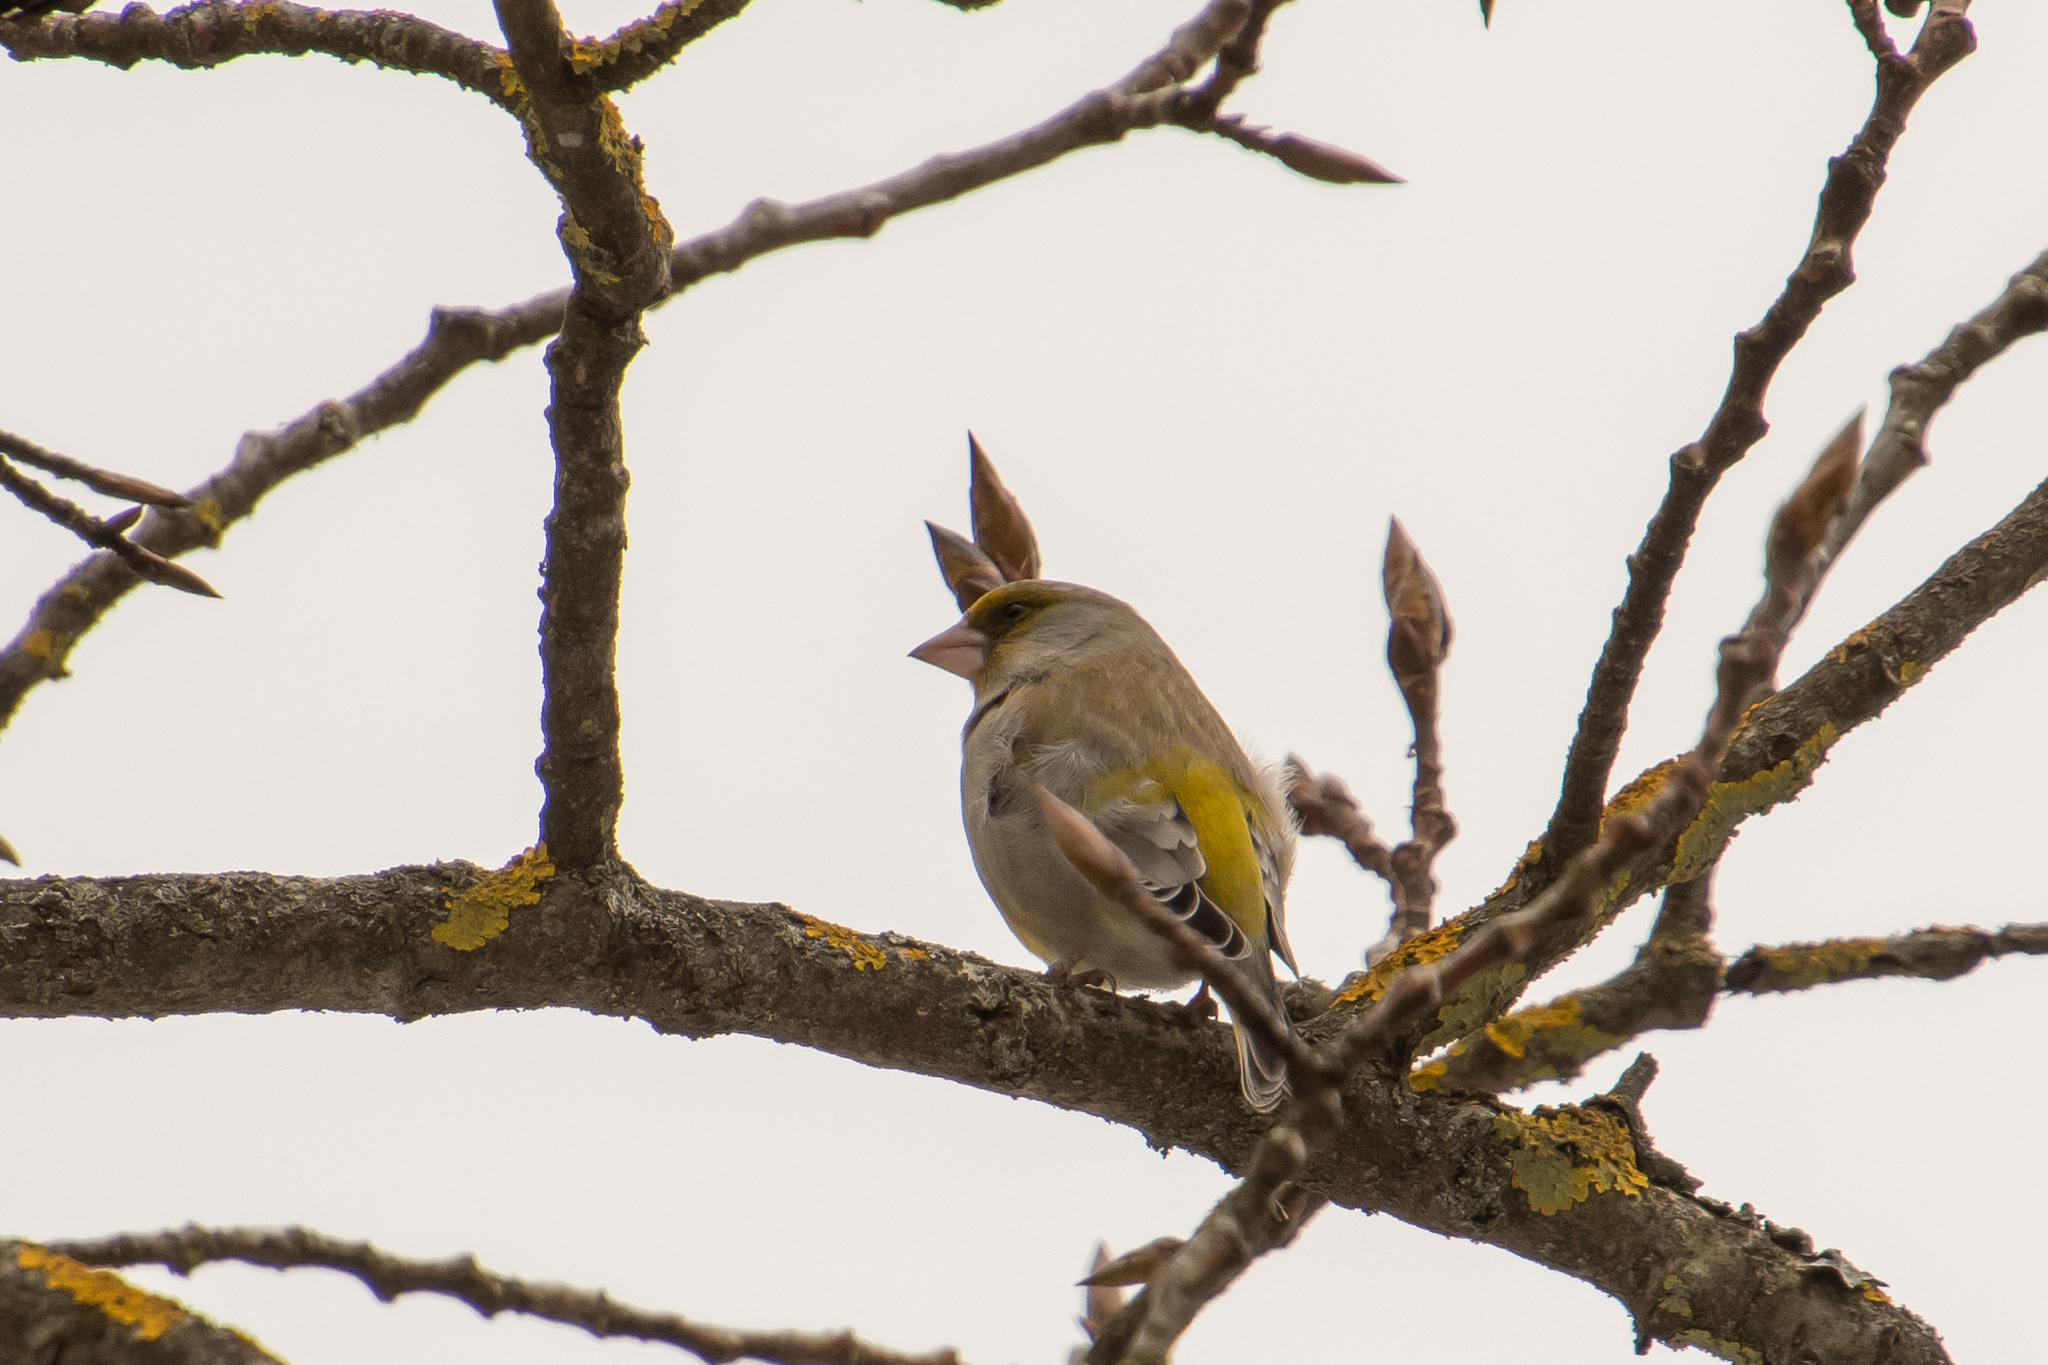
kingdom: Plantae
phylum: Tracheophyta
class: Liliopsida
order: Poales
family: Poaceae
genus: Chloris
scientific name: Chloris chloris
